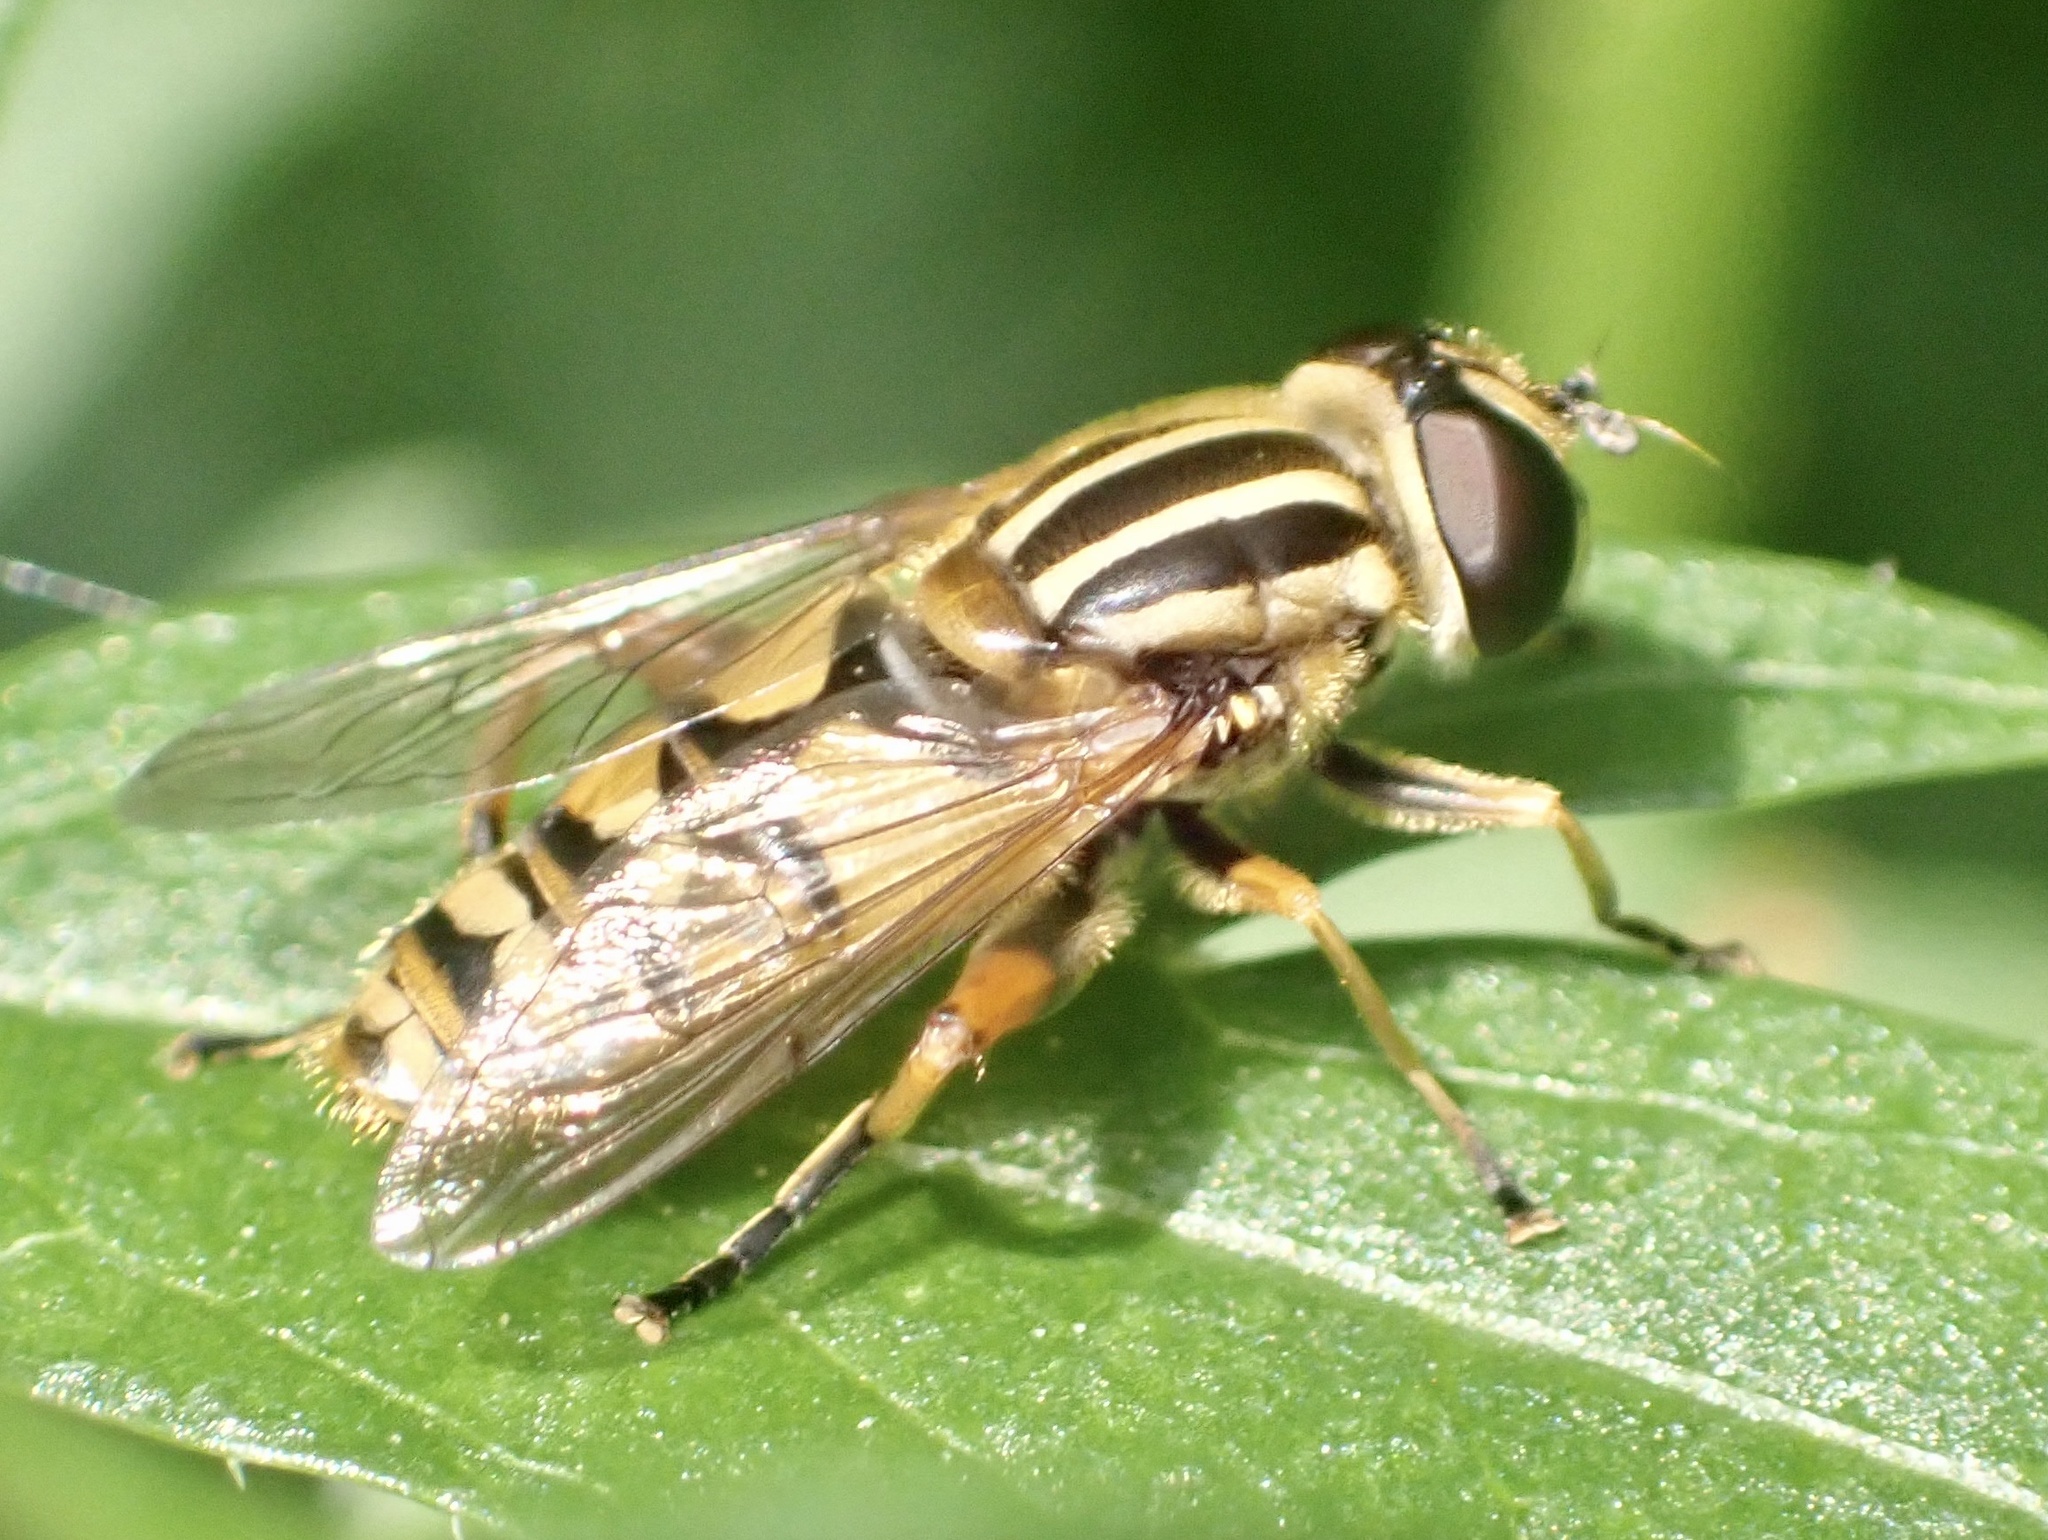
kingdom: Animalia
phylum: Arthropoda
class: Insecta
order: Diptera
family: Syrphidae
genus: Helophilus
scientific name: Helophilus pendulus
